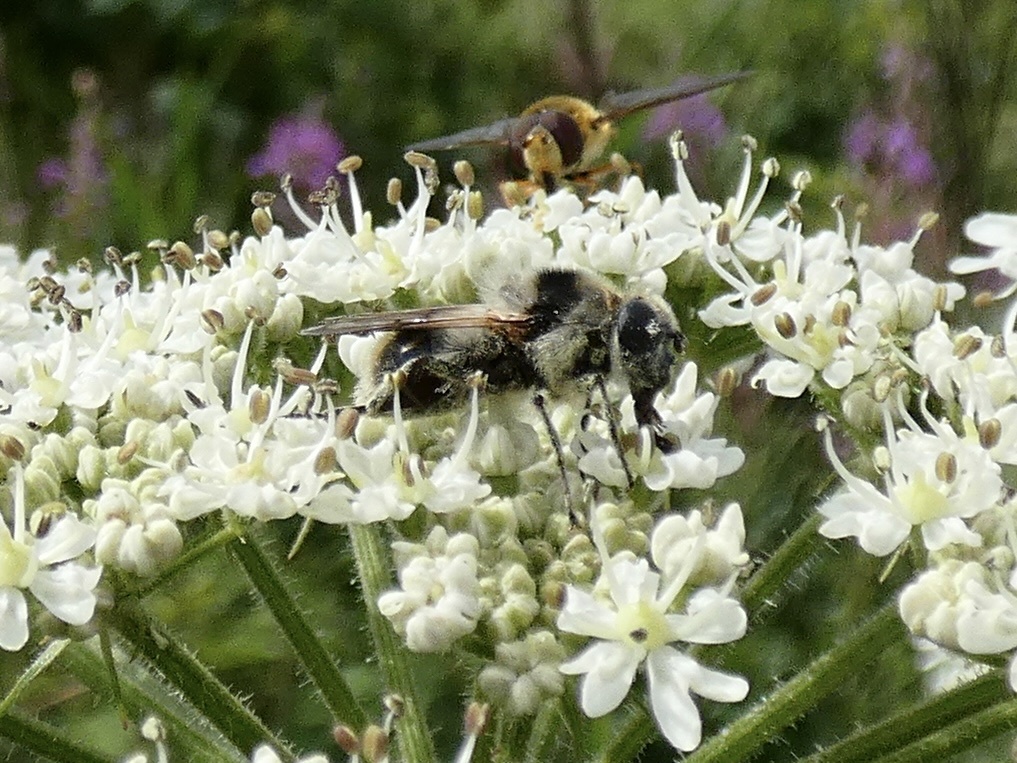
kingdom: Animalia
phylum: Arthropoda
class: Insecta
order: Diptera
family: Syrphidae
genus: Cheilosia
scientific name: Cheilosia illustrata
